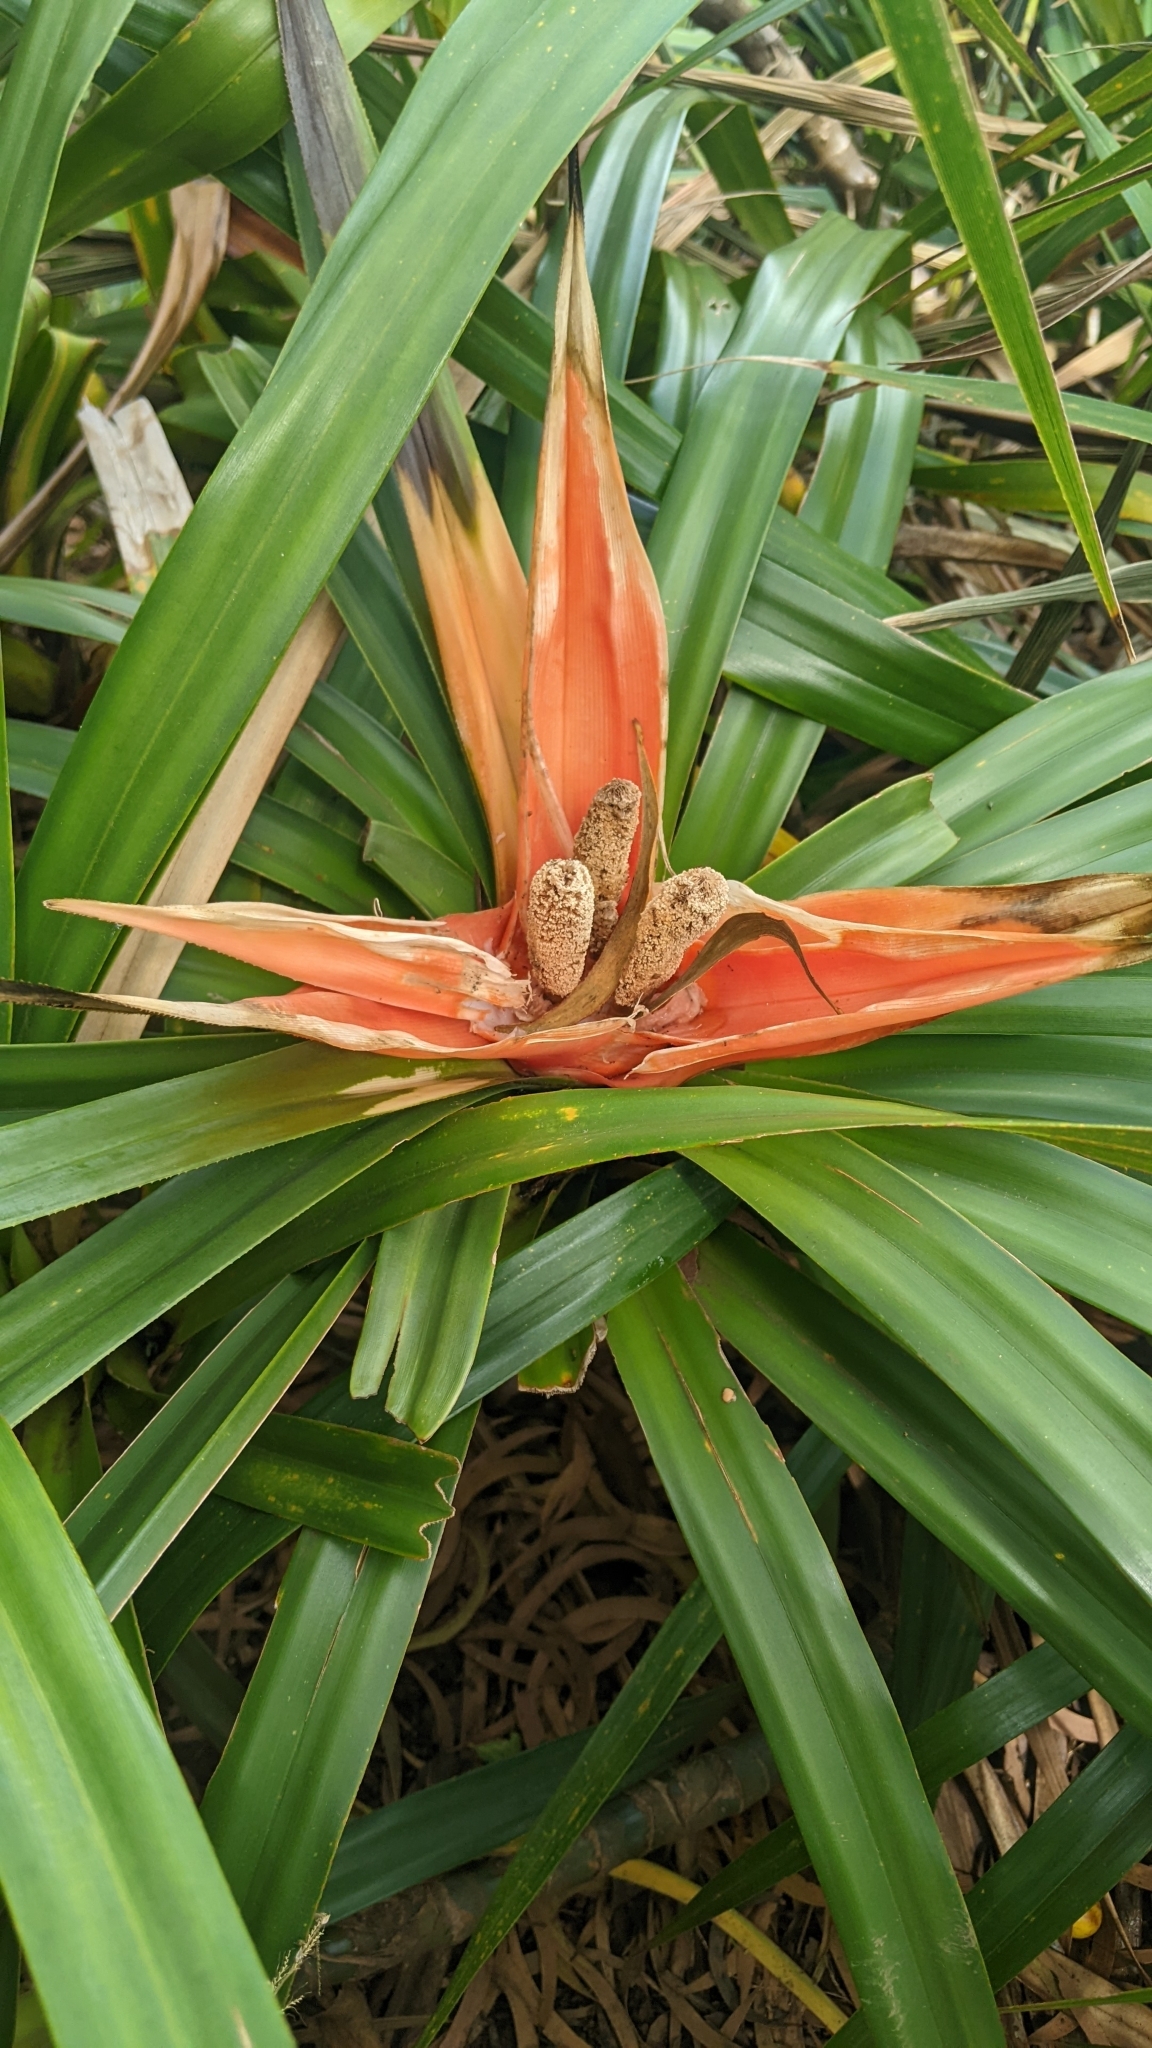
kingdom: Plantae
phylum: Tracheophyta
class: Liliopsida
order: Pandanales
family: Pandanaceae
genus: Freycinetia
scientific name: Freycinetia arborea
